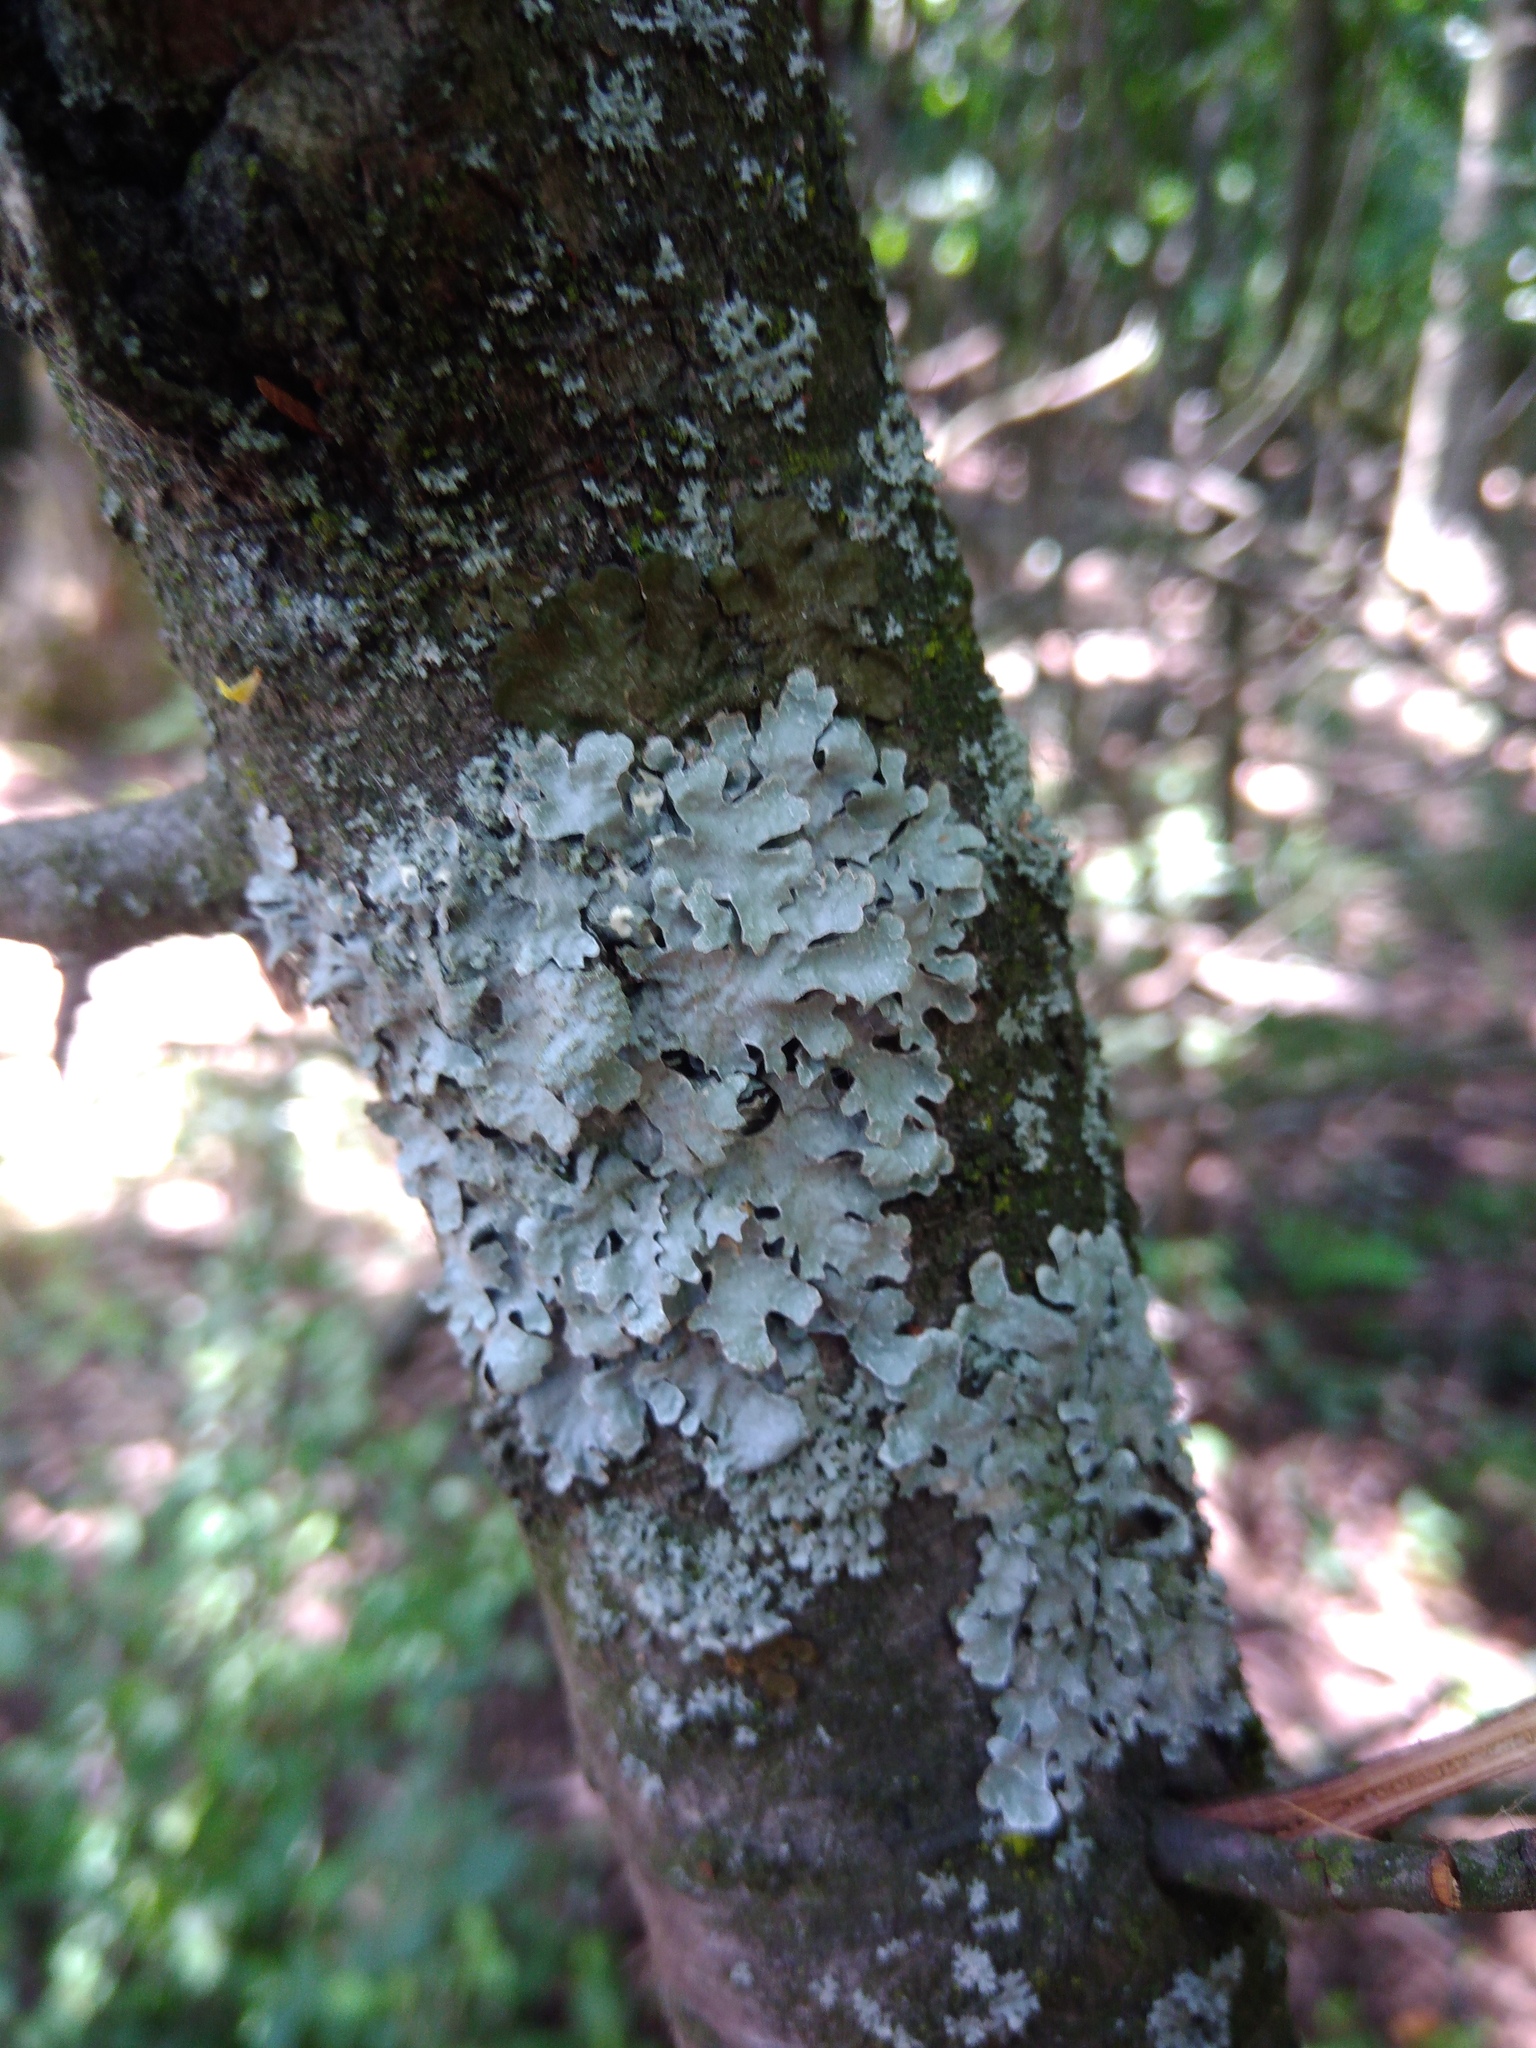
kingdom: Fungi
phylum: Ascomycota
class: Lecanoromycetes
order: Lecanorales
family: Parmeliaceae
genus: Parmelia
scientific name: Parmelia sulcata
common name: Netted shield lichen
